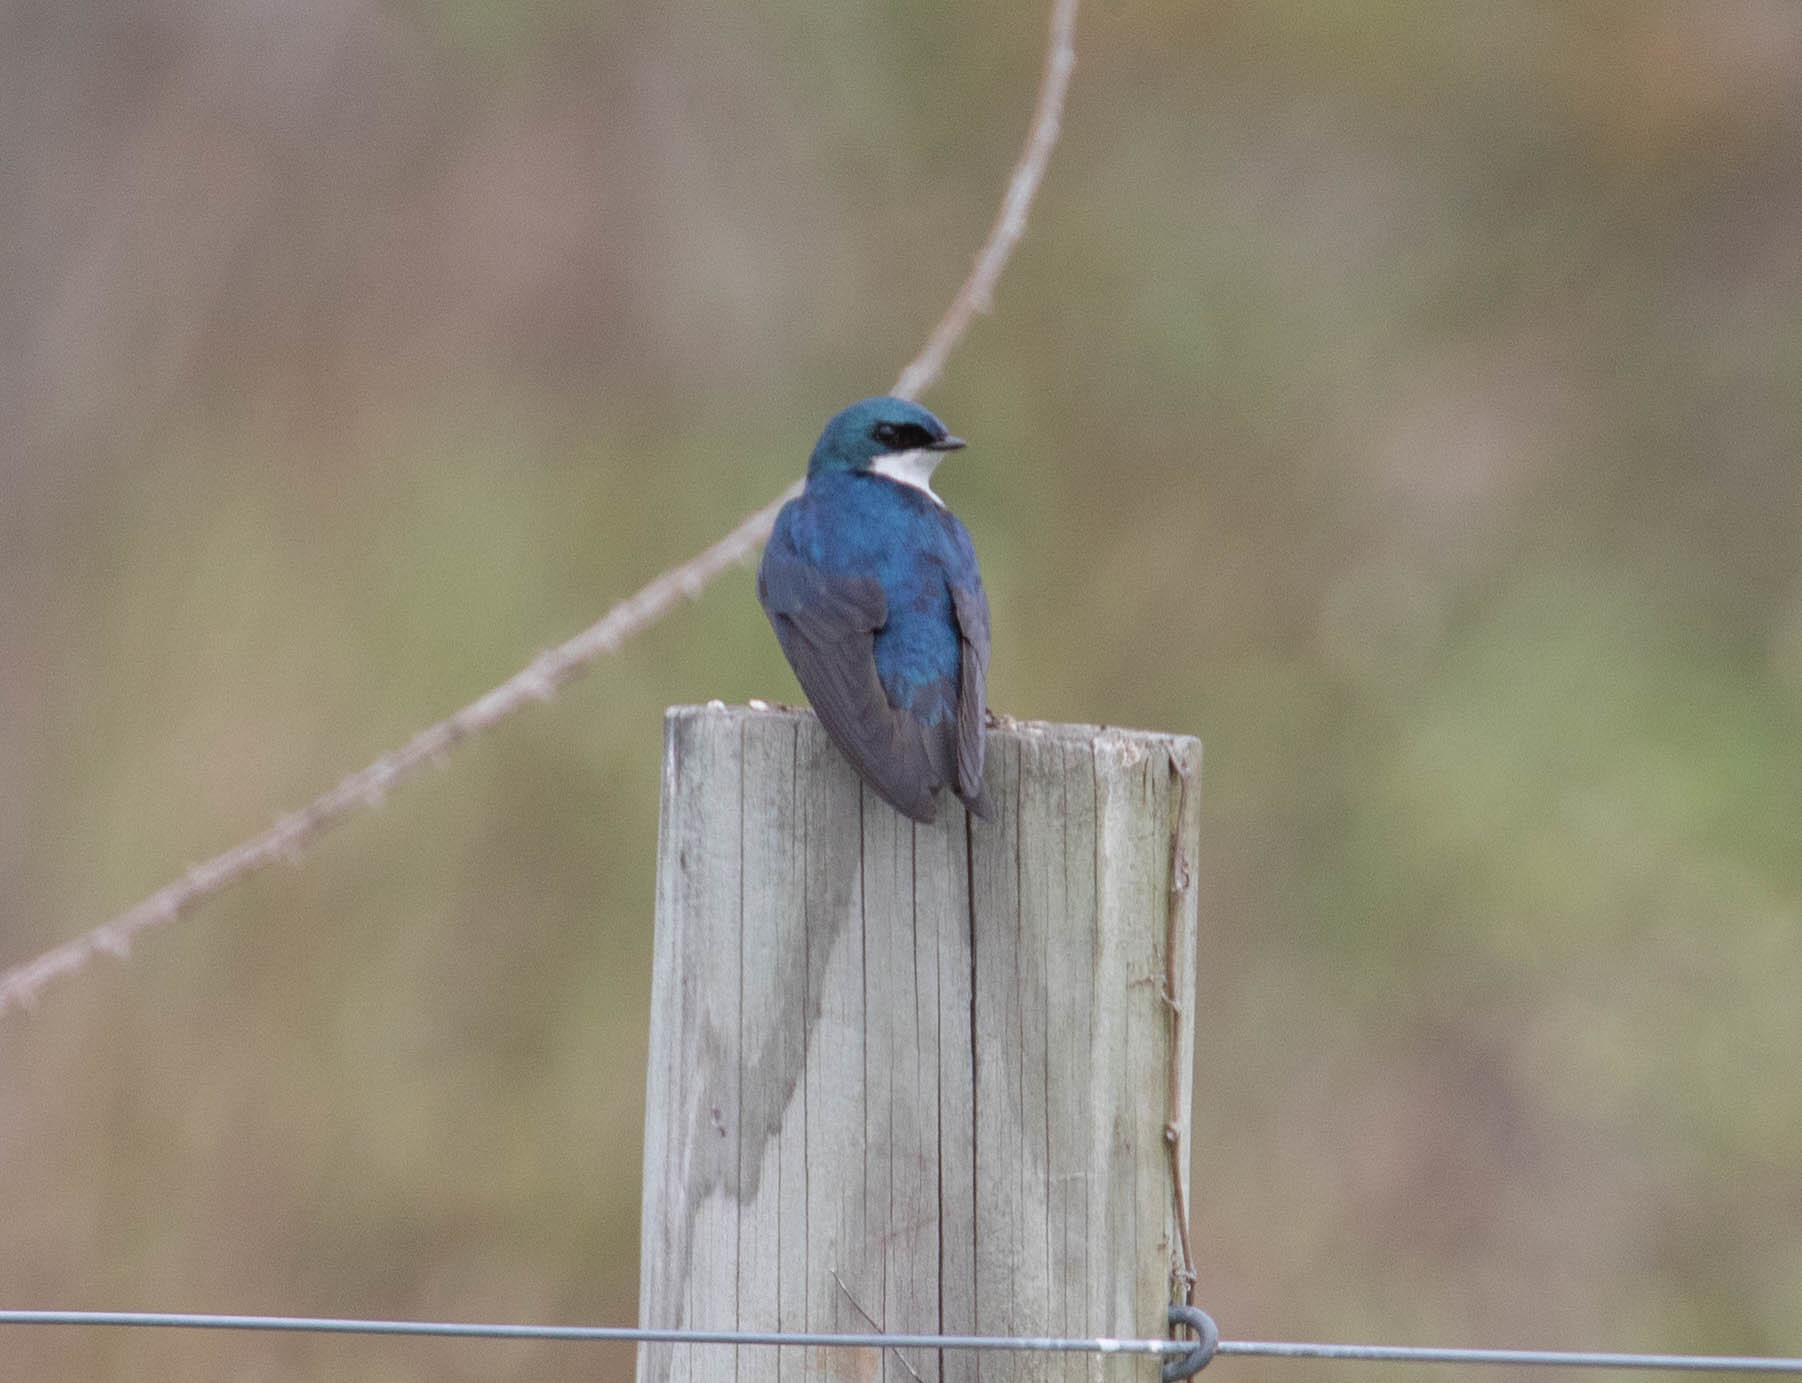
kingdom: Animalia
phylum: Chordata
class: Aves
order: Passeriformes
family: Hirundinidae
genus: Tachycineta
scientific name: Tachycineta bicolor
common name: Tree swallow
